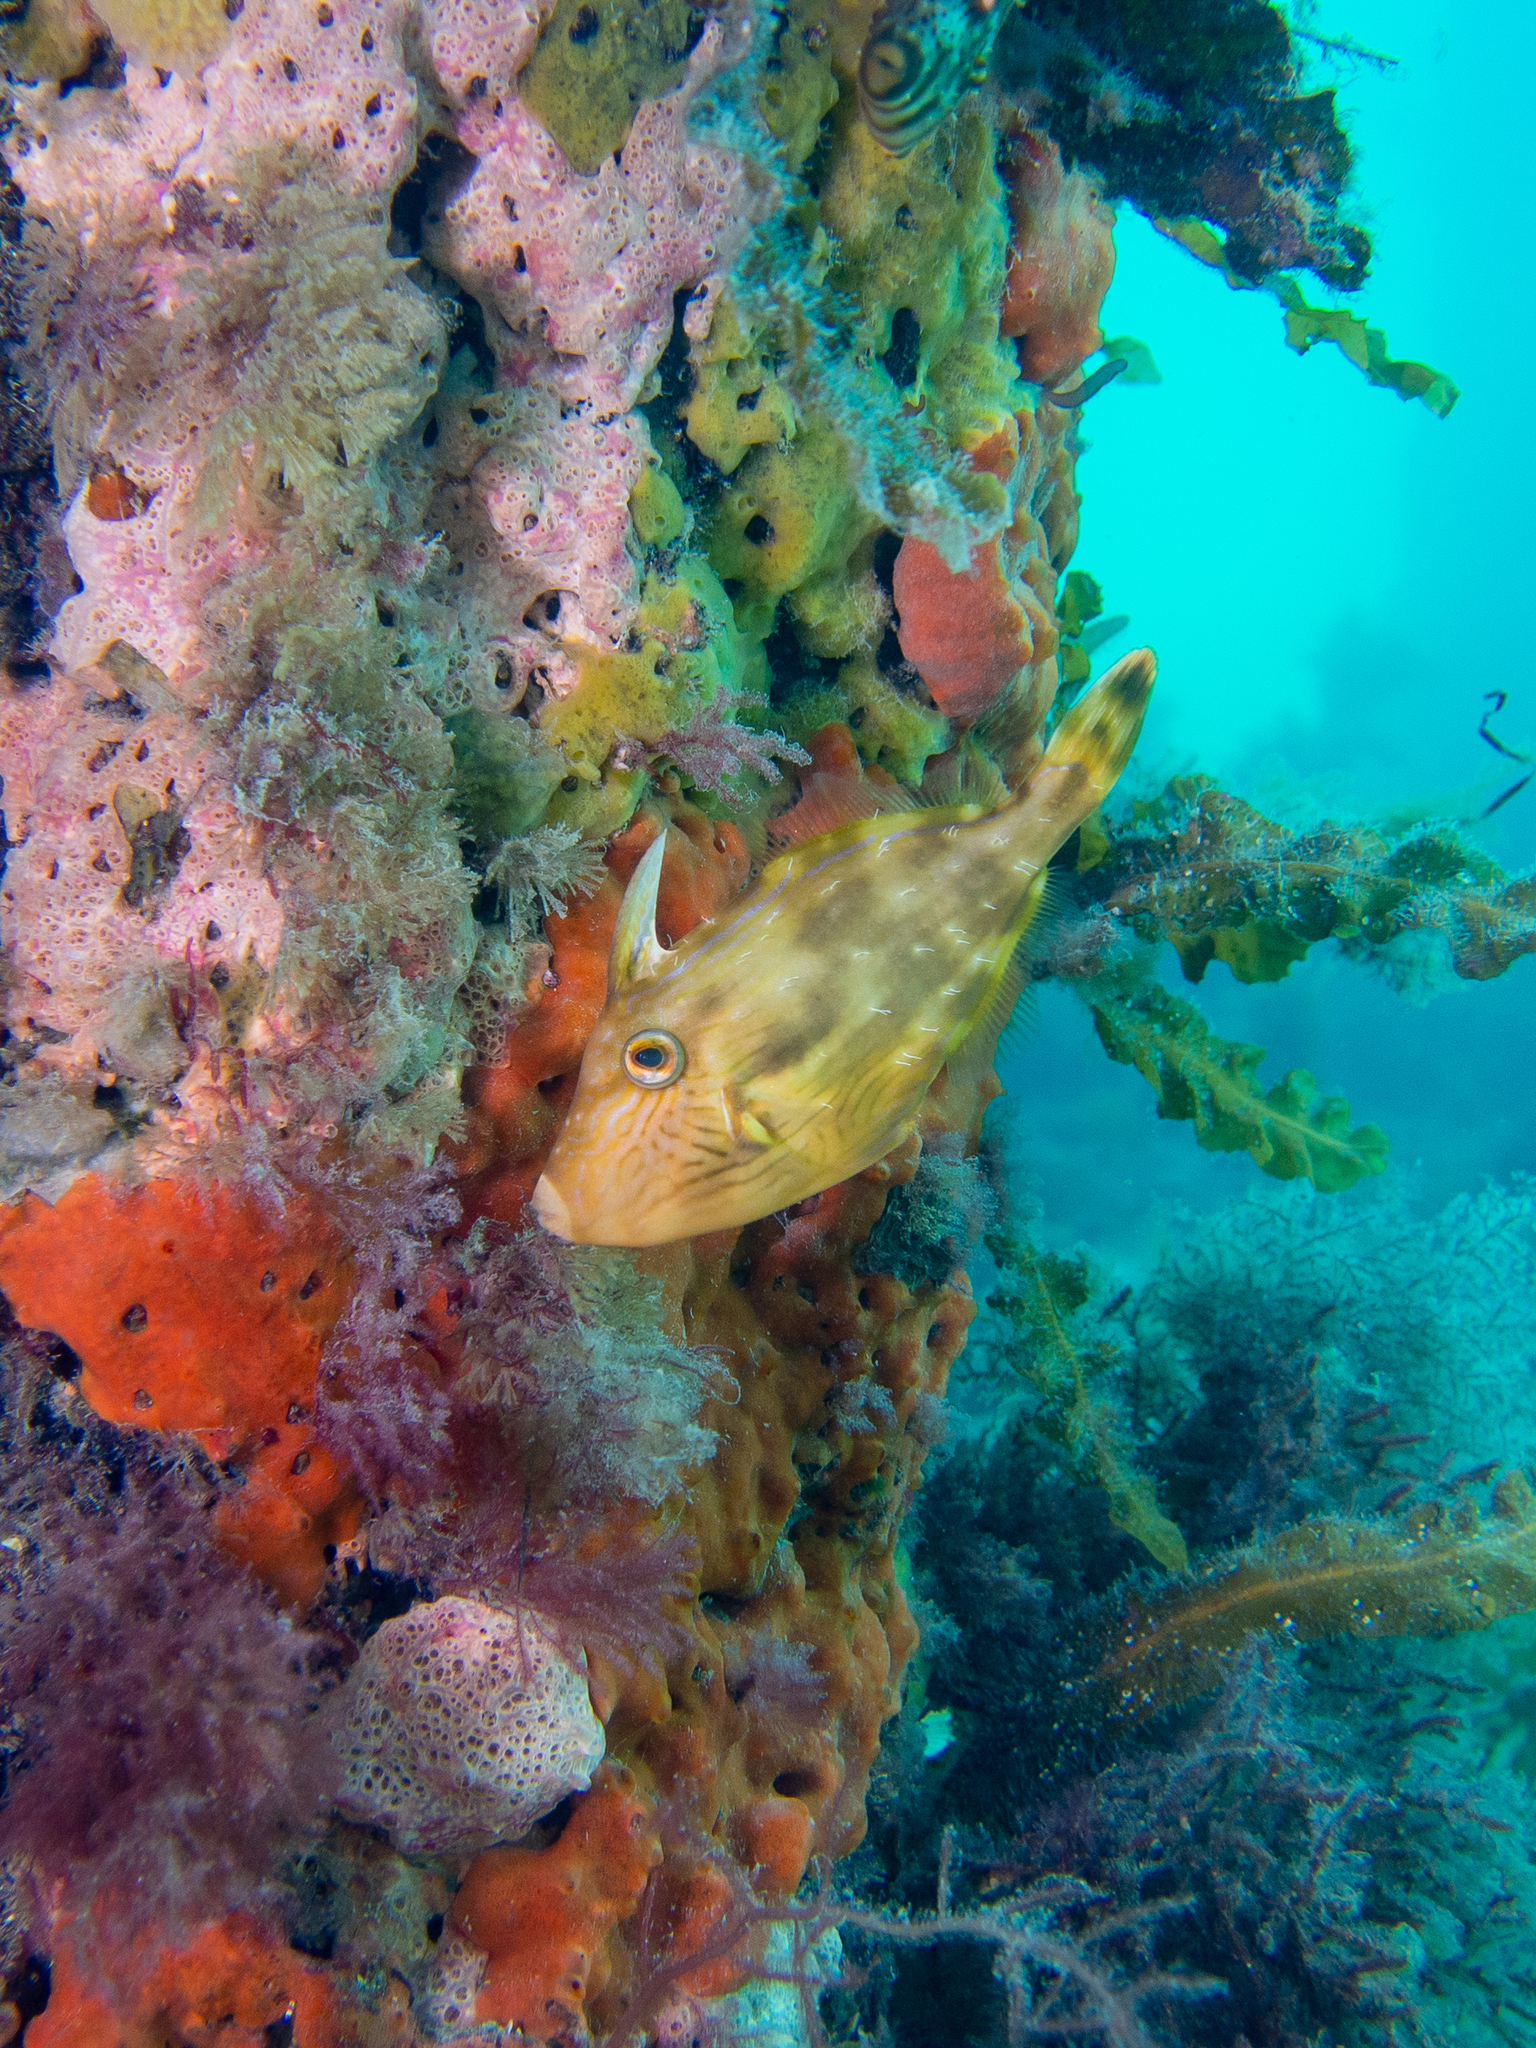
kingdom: Animalia
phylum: Chordata
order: Tetraodontiformes
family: Monacanthidae
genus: Meuschenia
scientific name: Meuschenia freycineti
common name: Freycinet's leatherjacket
